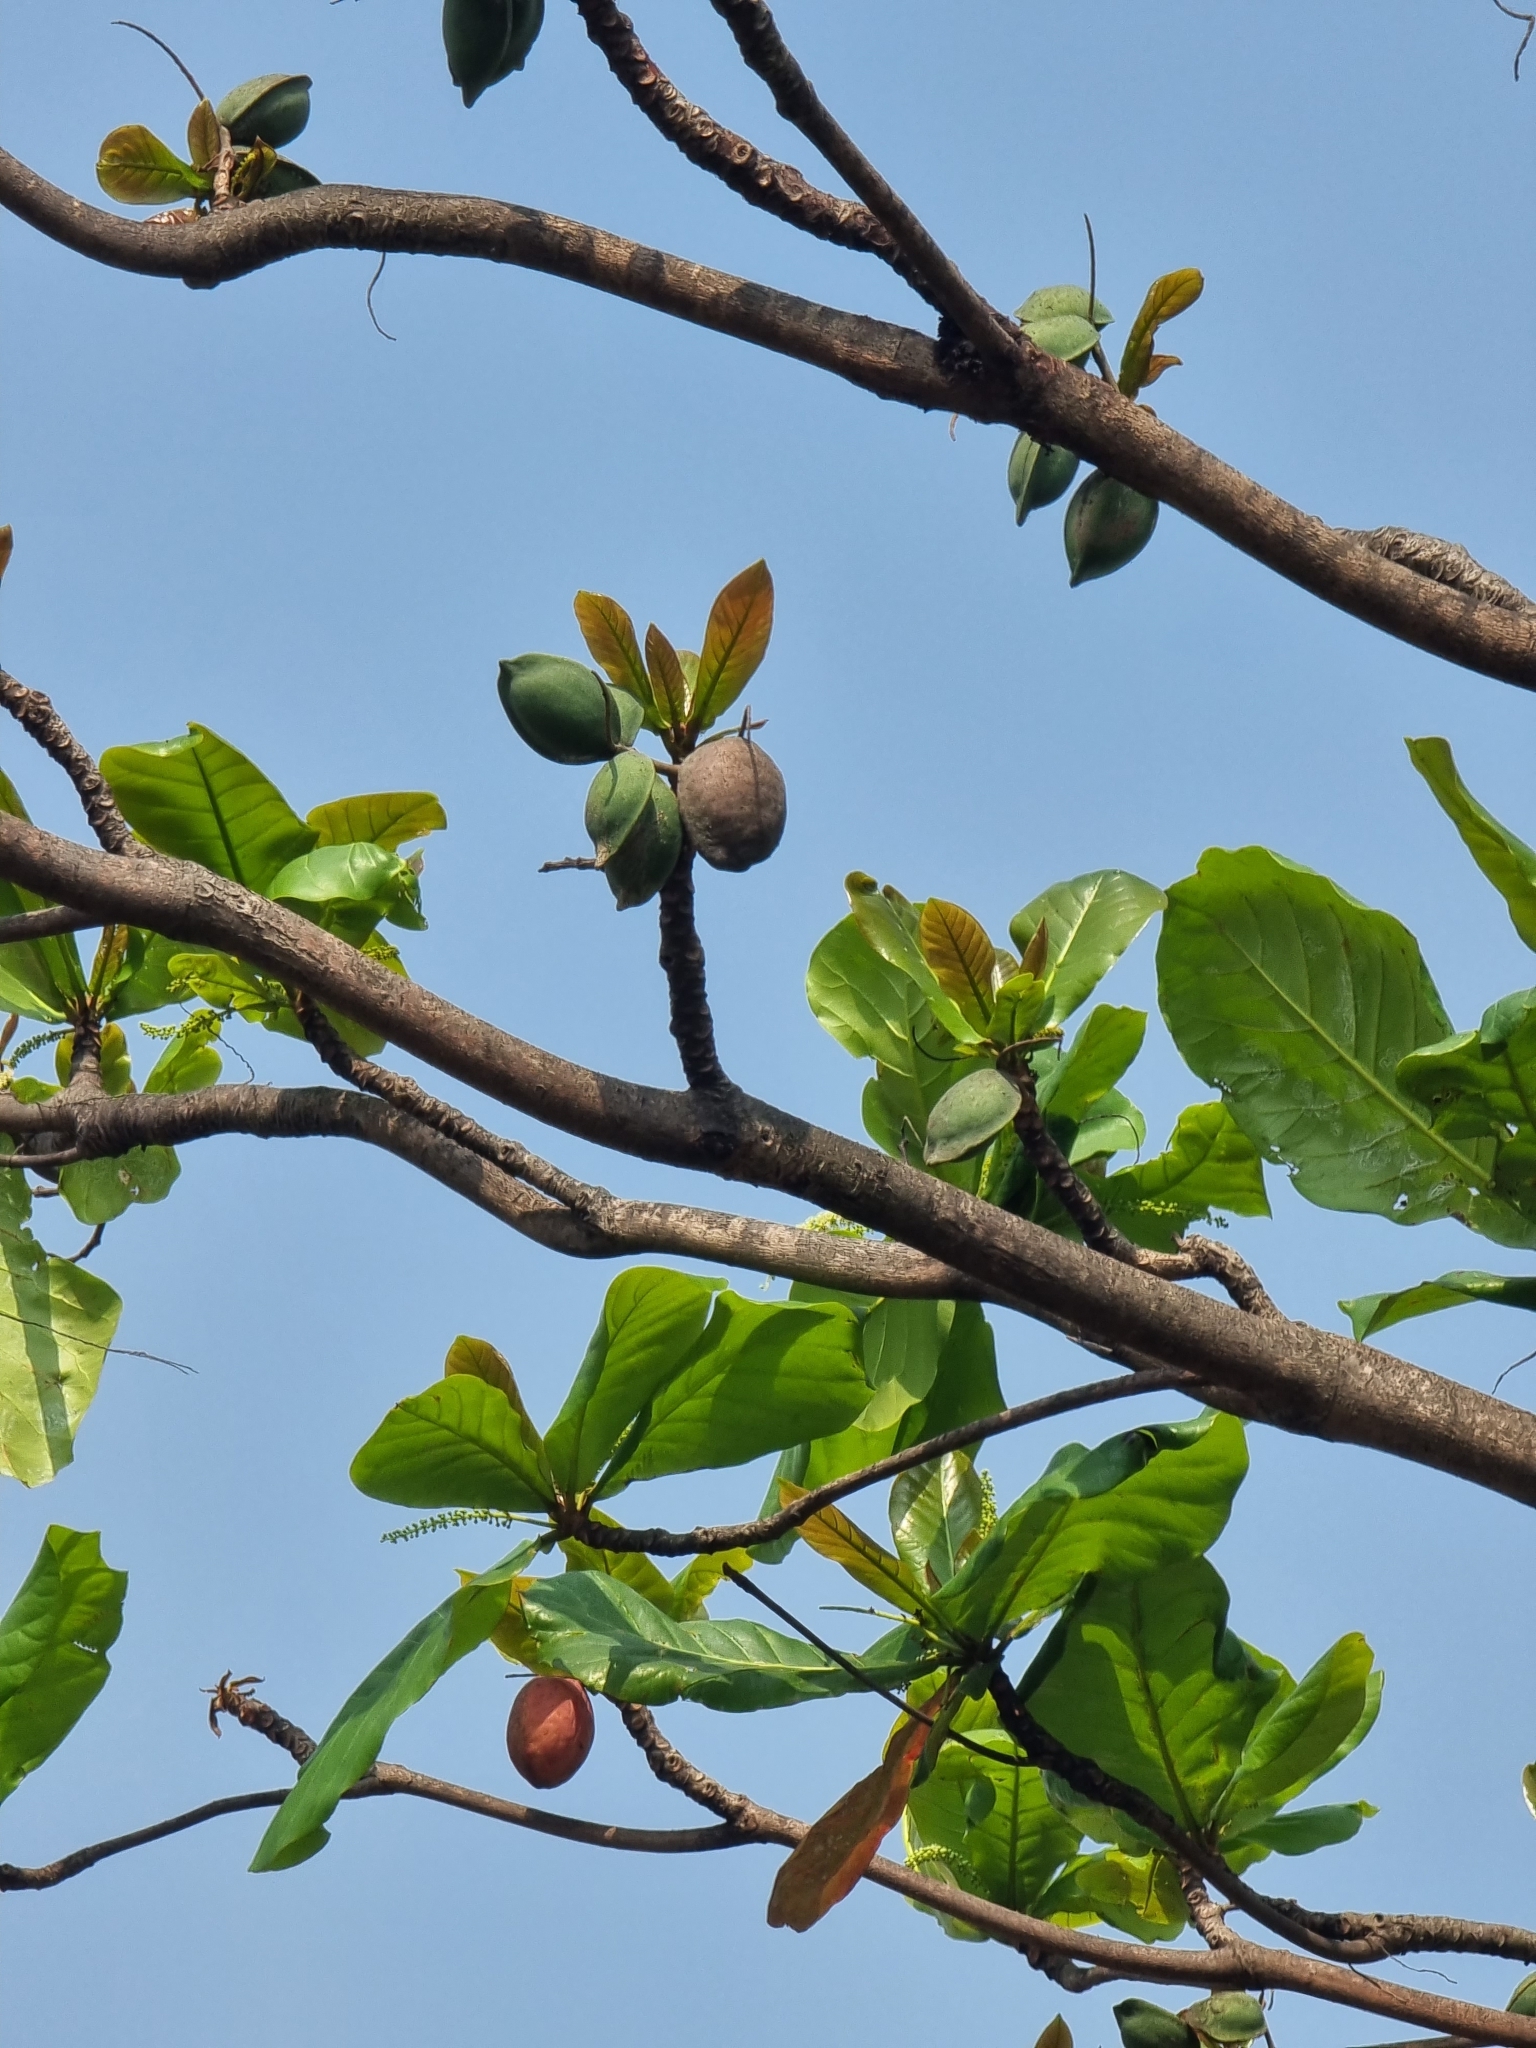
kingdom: Plantae
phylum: Tracheophyta
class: Magnoliopsida
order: Myrtales
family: Combretaceae
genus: Terminalia
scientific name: Terminalia catappa
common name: Tropical almond
